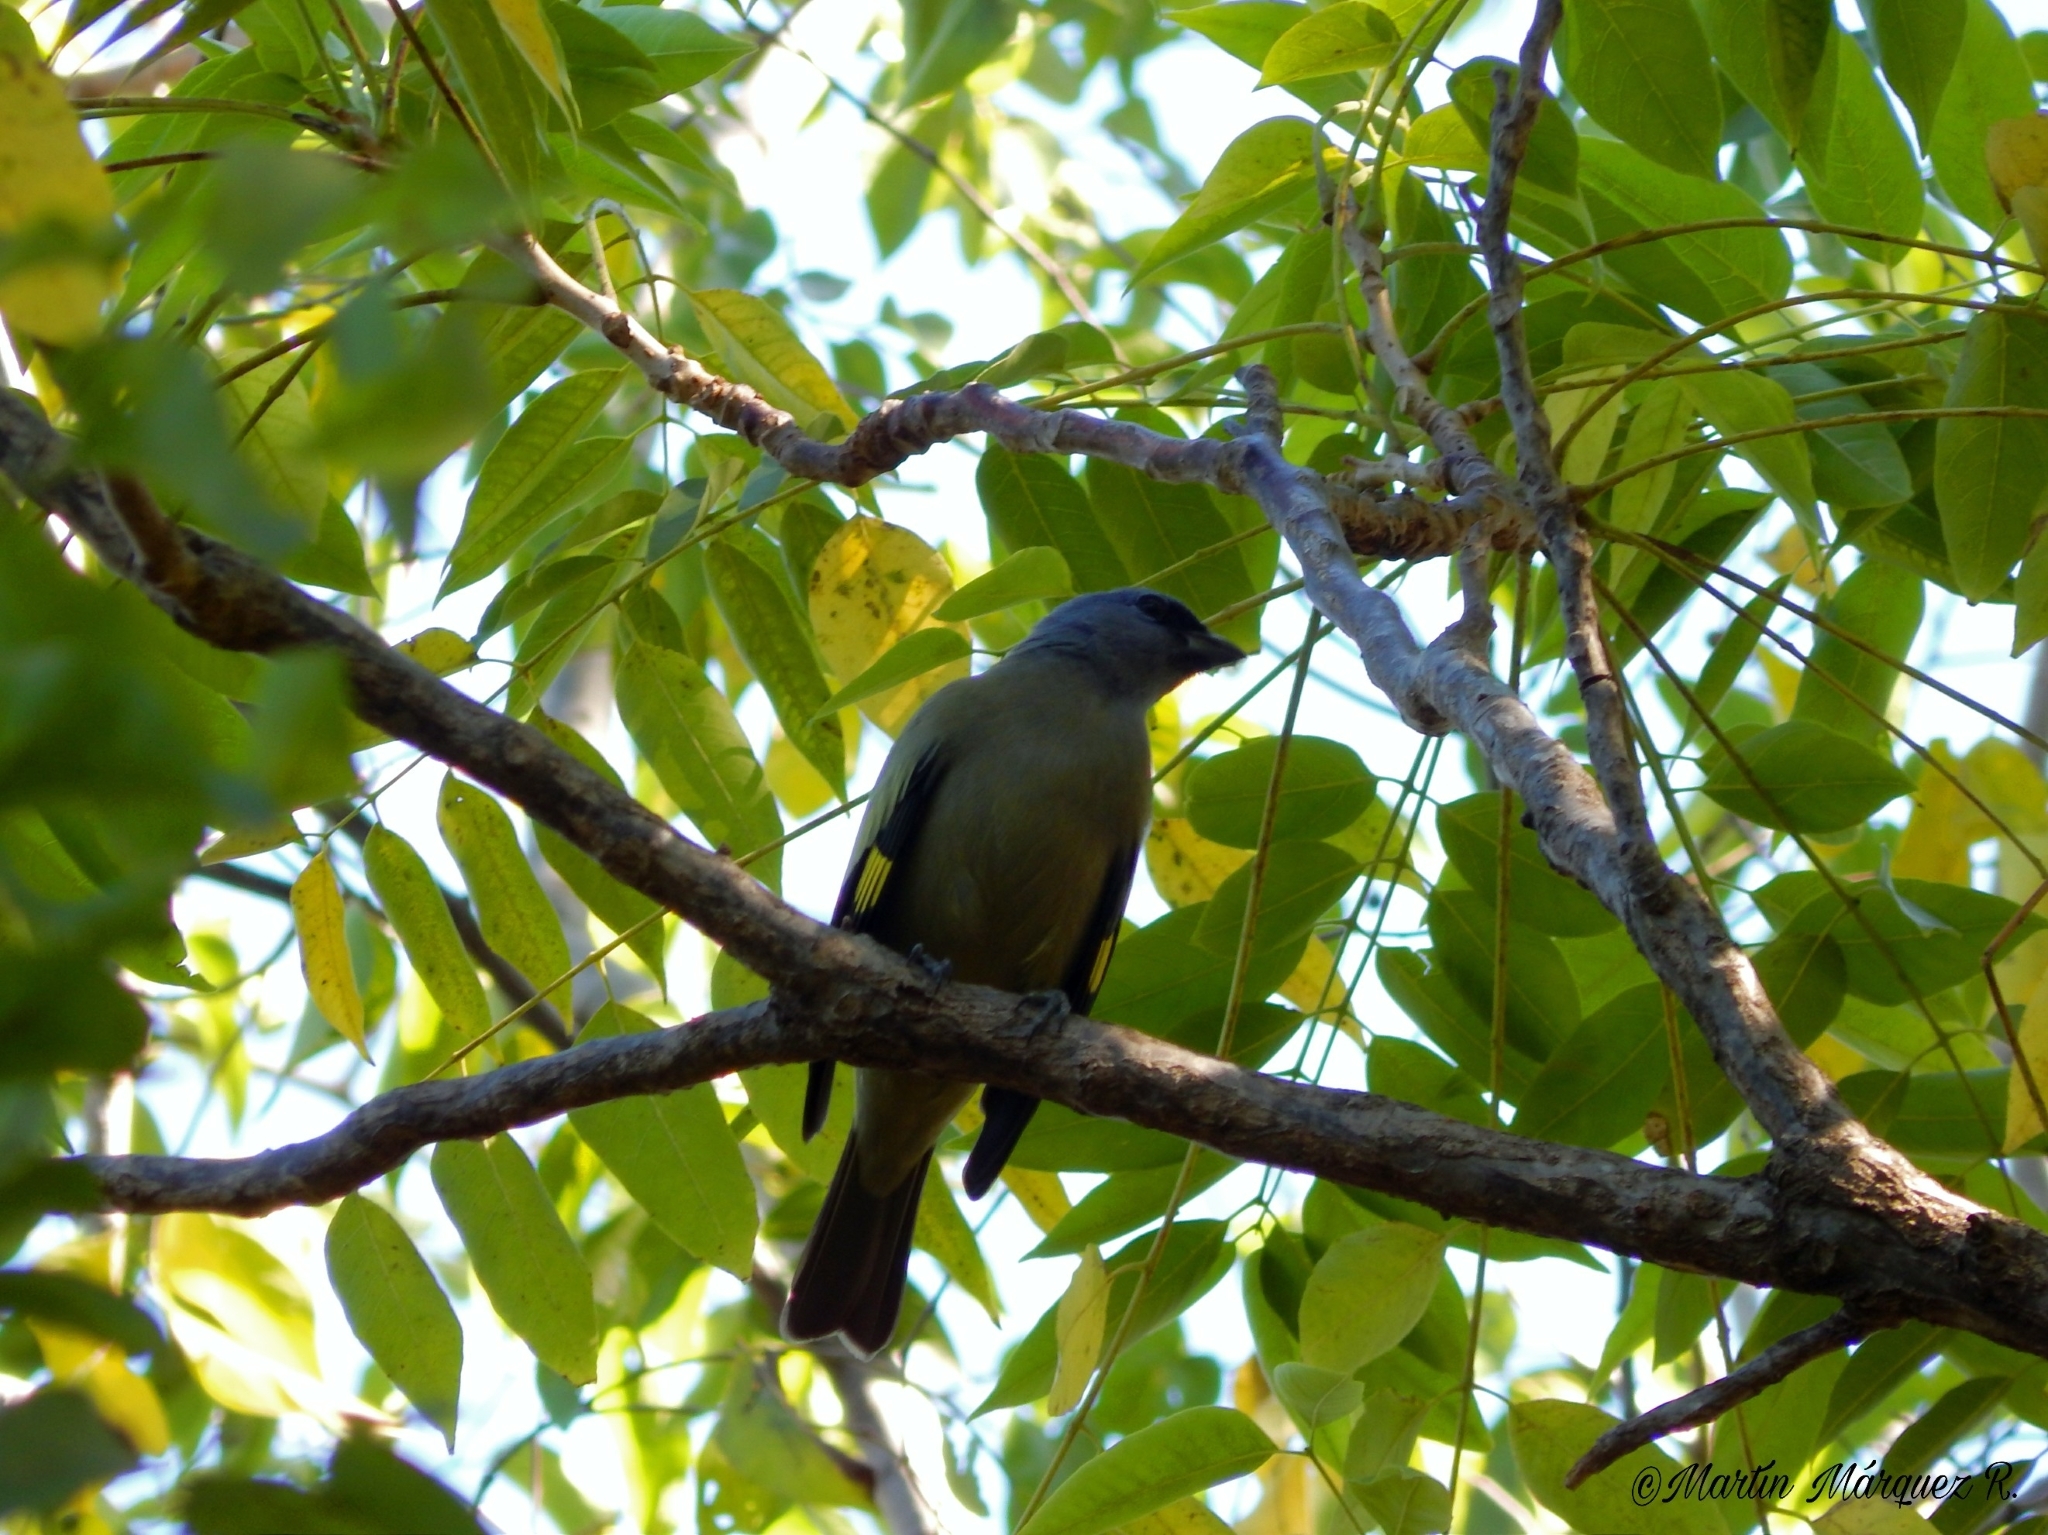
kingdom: Animalia
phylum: Chordata
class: Aves
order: Passeriformes
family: Thraupidae
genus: Thraupis
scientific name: Thraupis abbas
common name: Yellow-winged tanager
